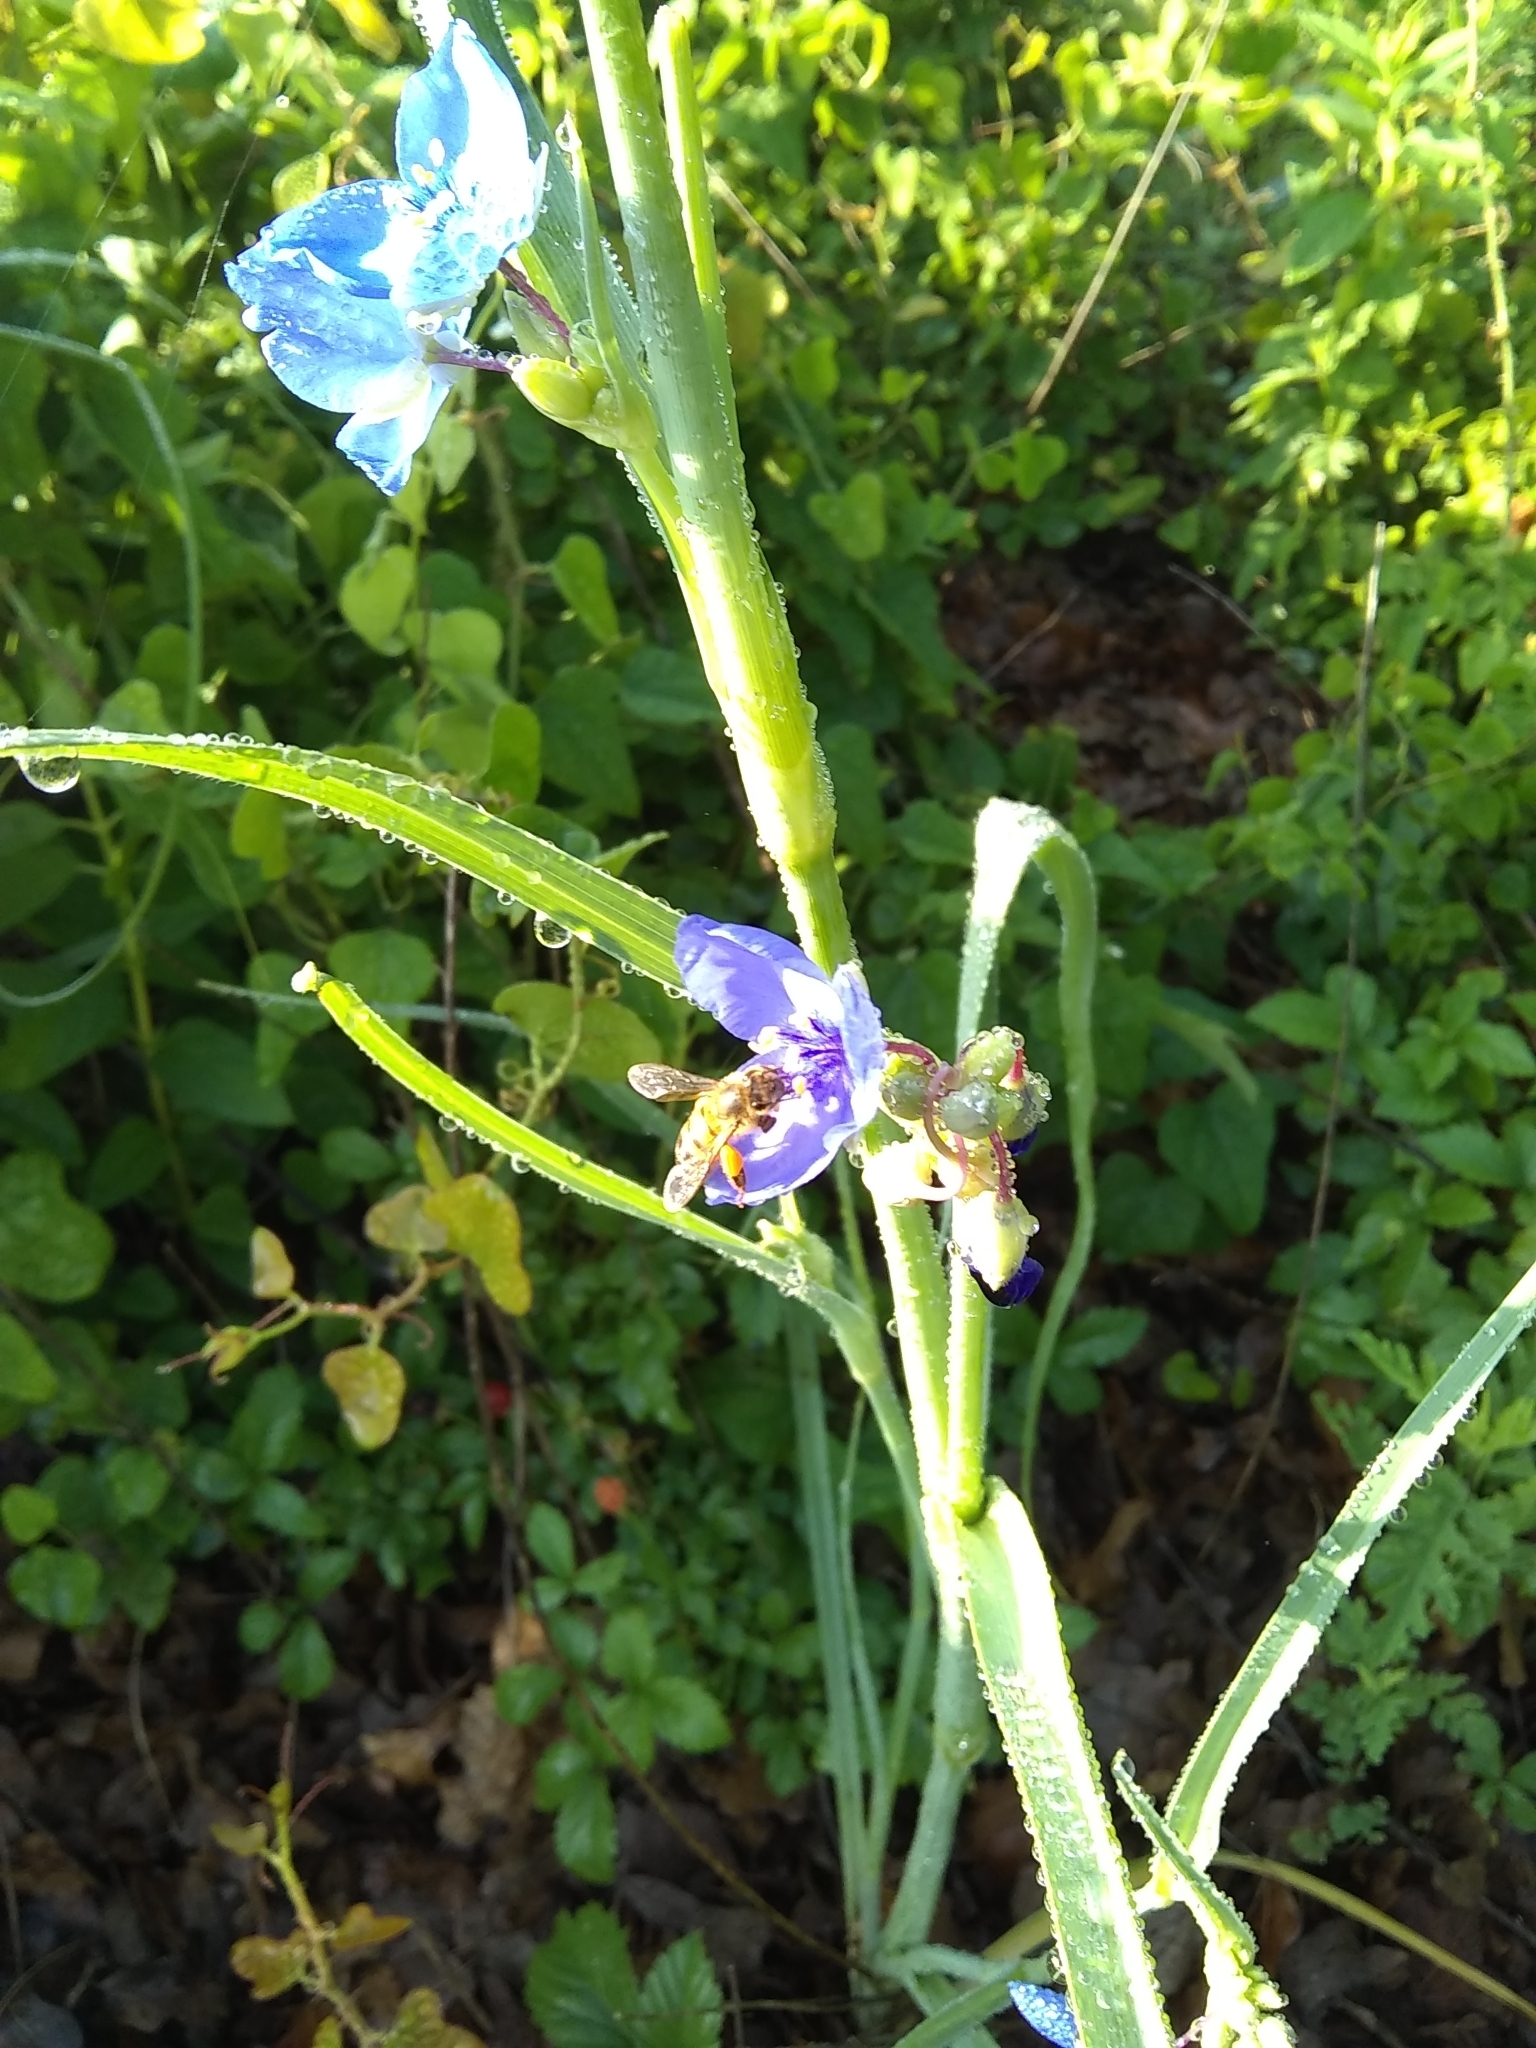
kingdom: Plantae
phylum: Tracheophyta
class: Liliopsida
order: Commelinales
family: Commelinaceae
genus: Tradescantia
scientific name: Tradescantia ohiensis
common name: Ohio spiderwort
